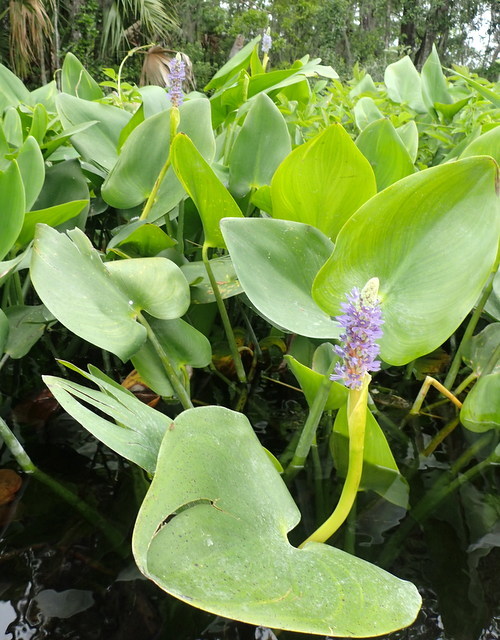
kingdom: Plantae
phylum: Tracheophyta
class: Liliopsida
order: Commelinales
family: Pontederiaceae
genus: Pontederia
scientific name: Pontederia cordata
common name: Pickerelweed
